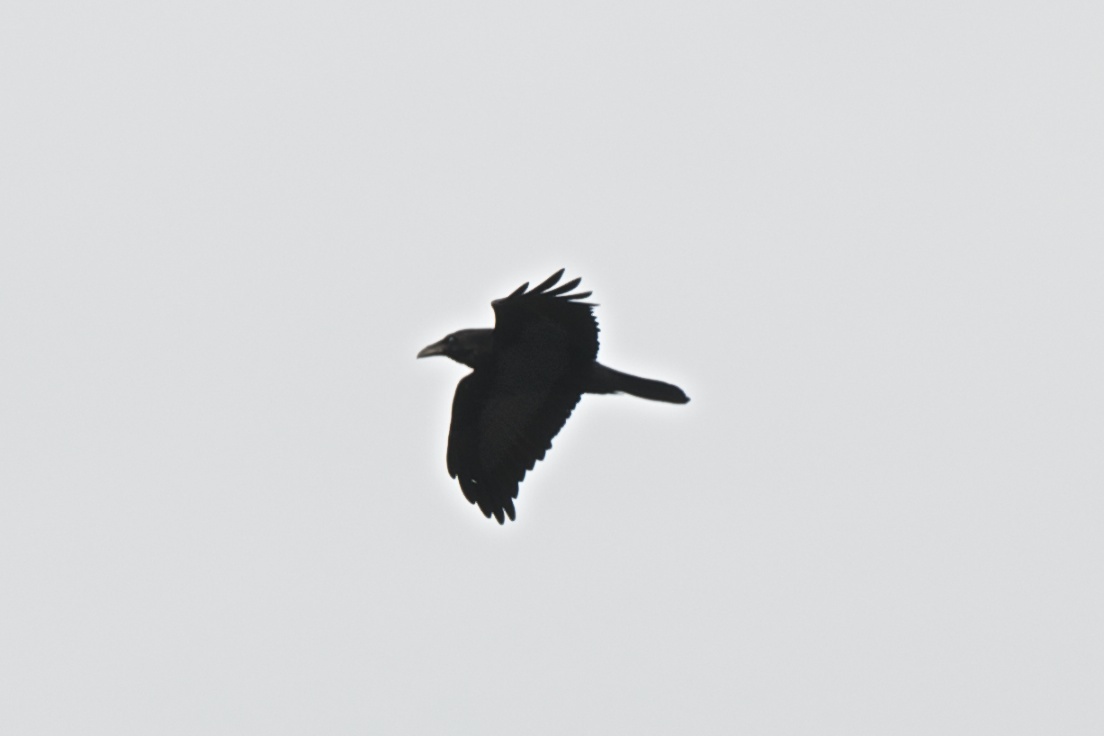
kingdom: Animalia
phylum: Chordata
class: Aves
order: Passeriformes
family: Corvidae
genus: Corvus
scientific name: Corvus brachyrhynchos
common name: American crow
